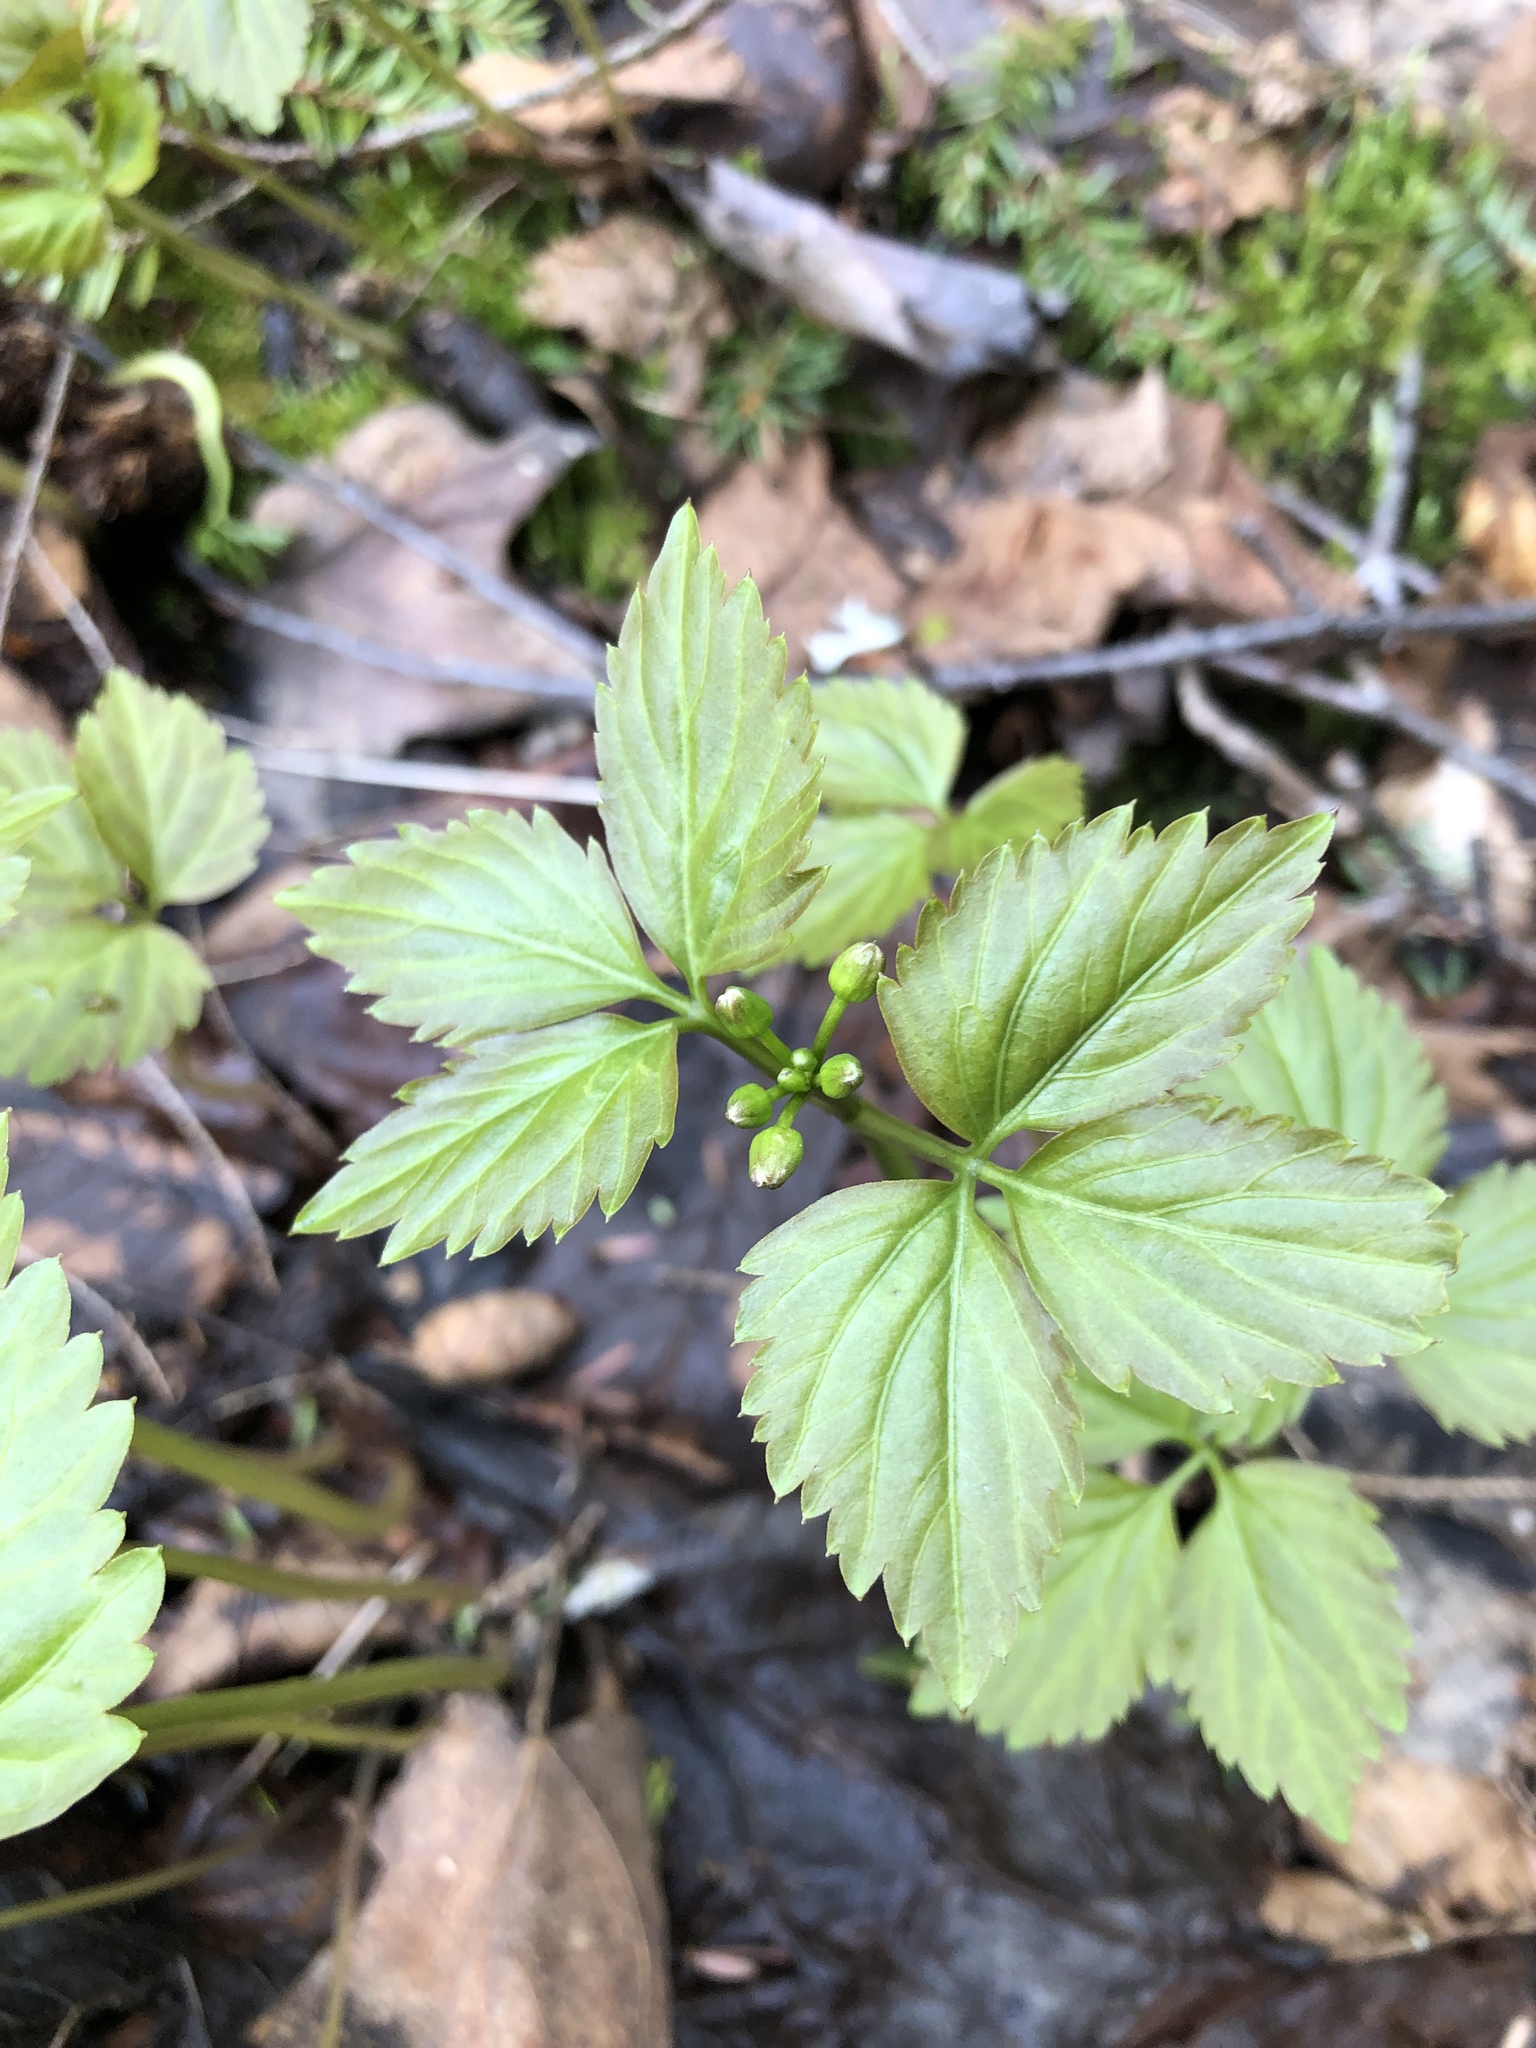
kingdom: Plantae
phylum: Tracheophyta
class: Magnoliopsida
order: Brassicales
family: Brassicaceae
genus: Cardamine
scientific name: Cardamine diphylla
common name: Broad-leaved toothwort
